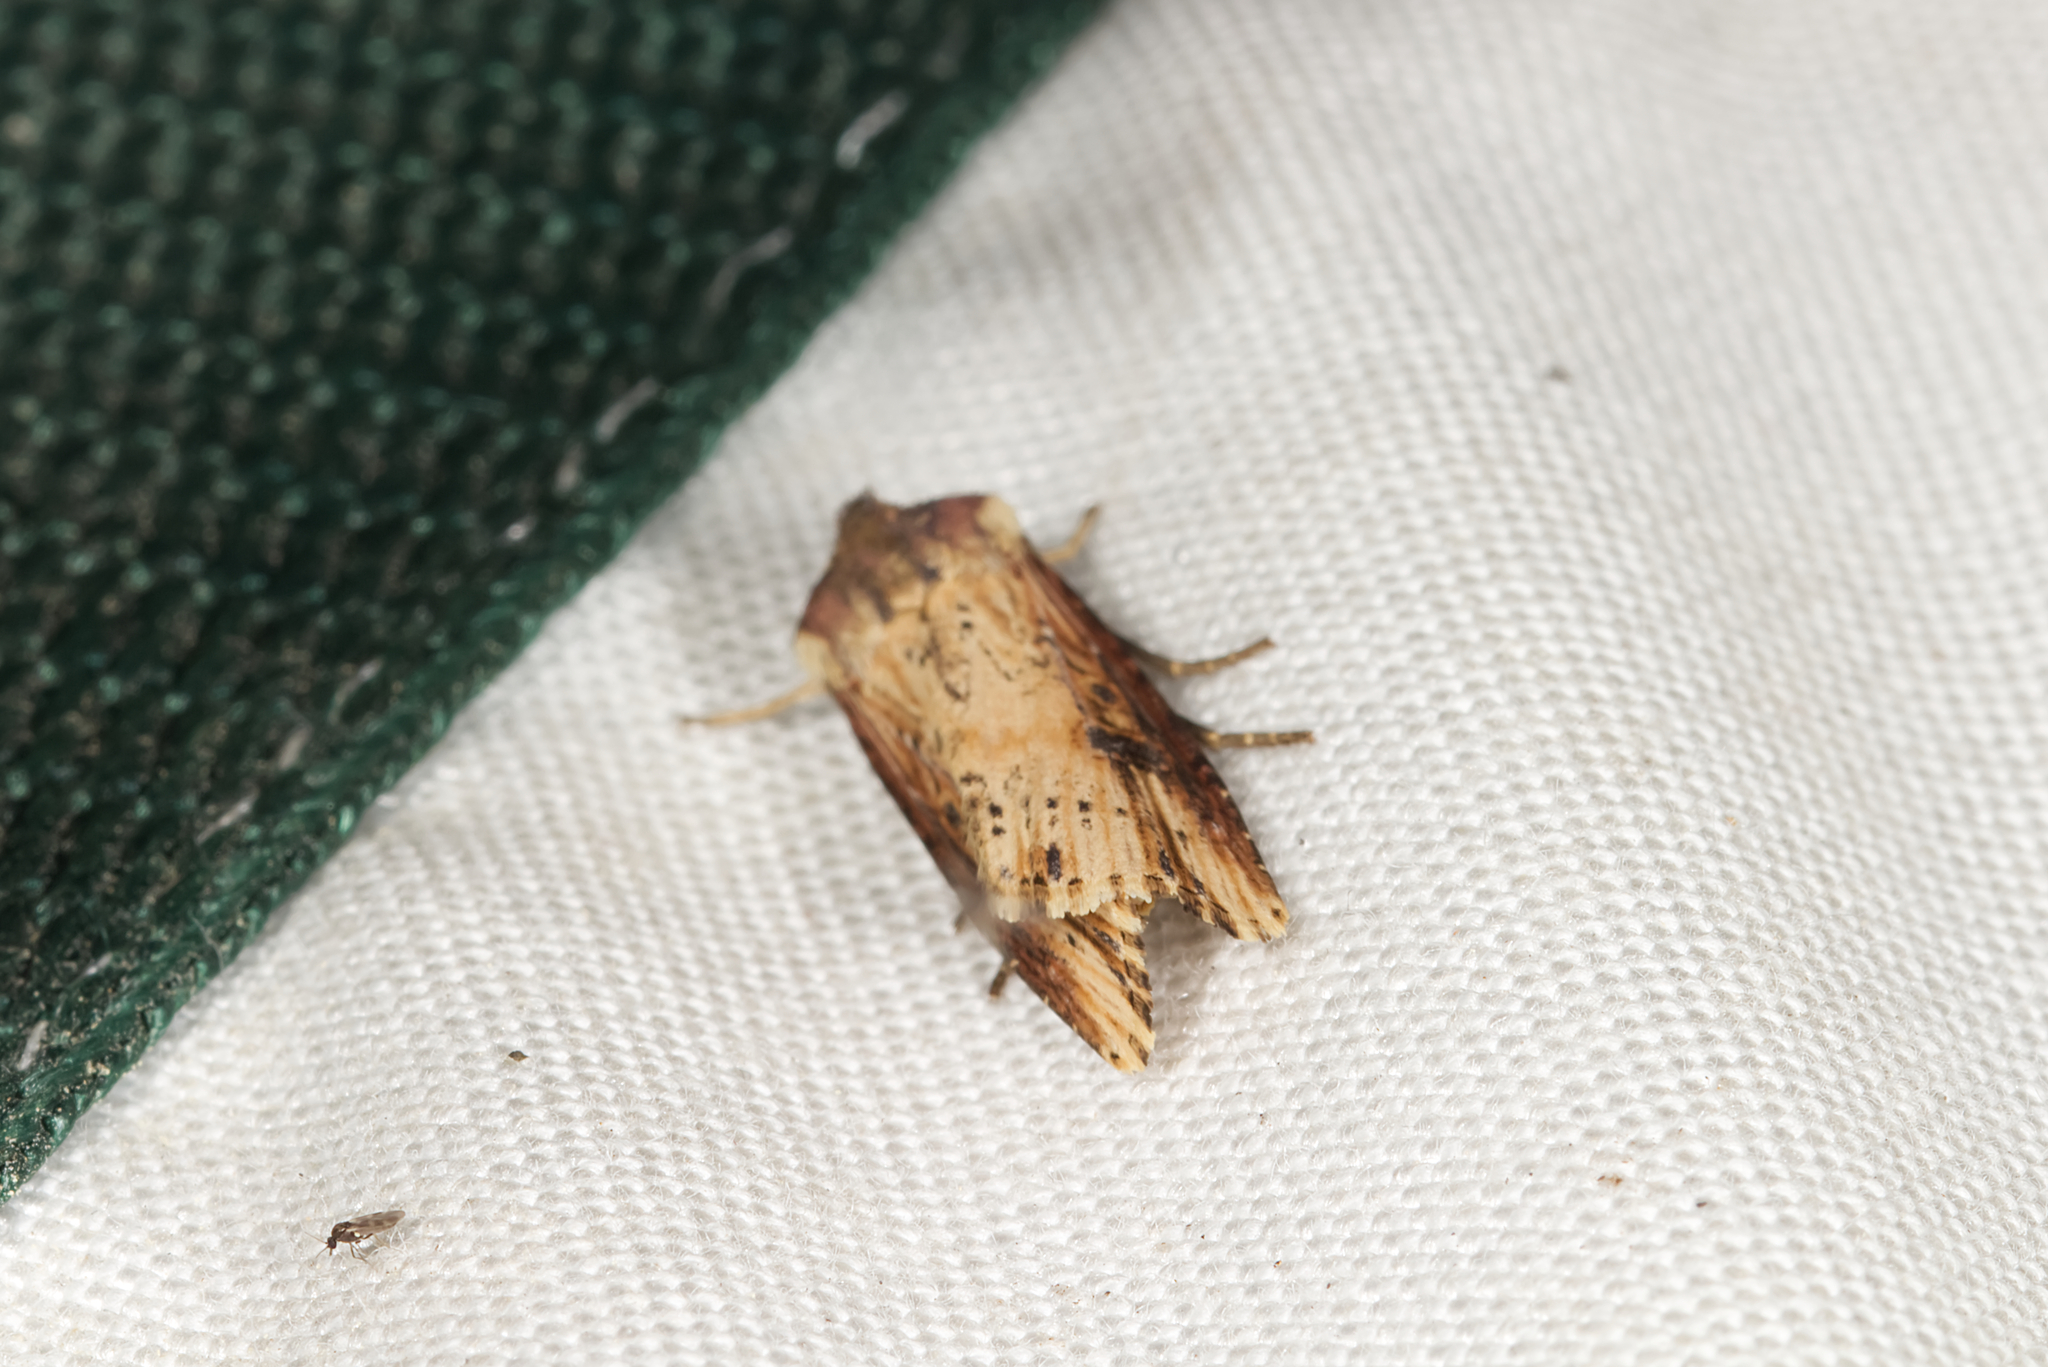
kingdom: Animalia
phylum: Arthropoda
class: Insecta
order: Lepidoptera
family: Noctuidae
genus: Axylia
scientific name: Axylia putris
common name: Flame
